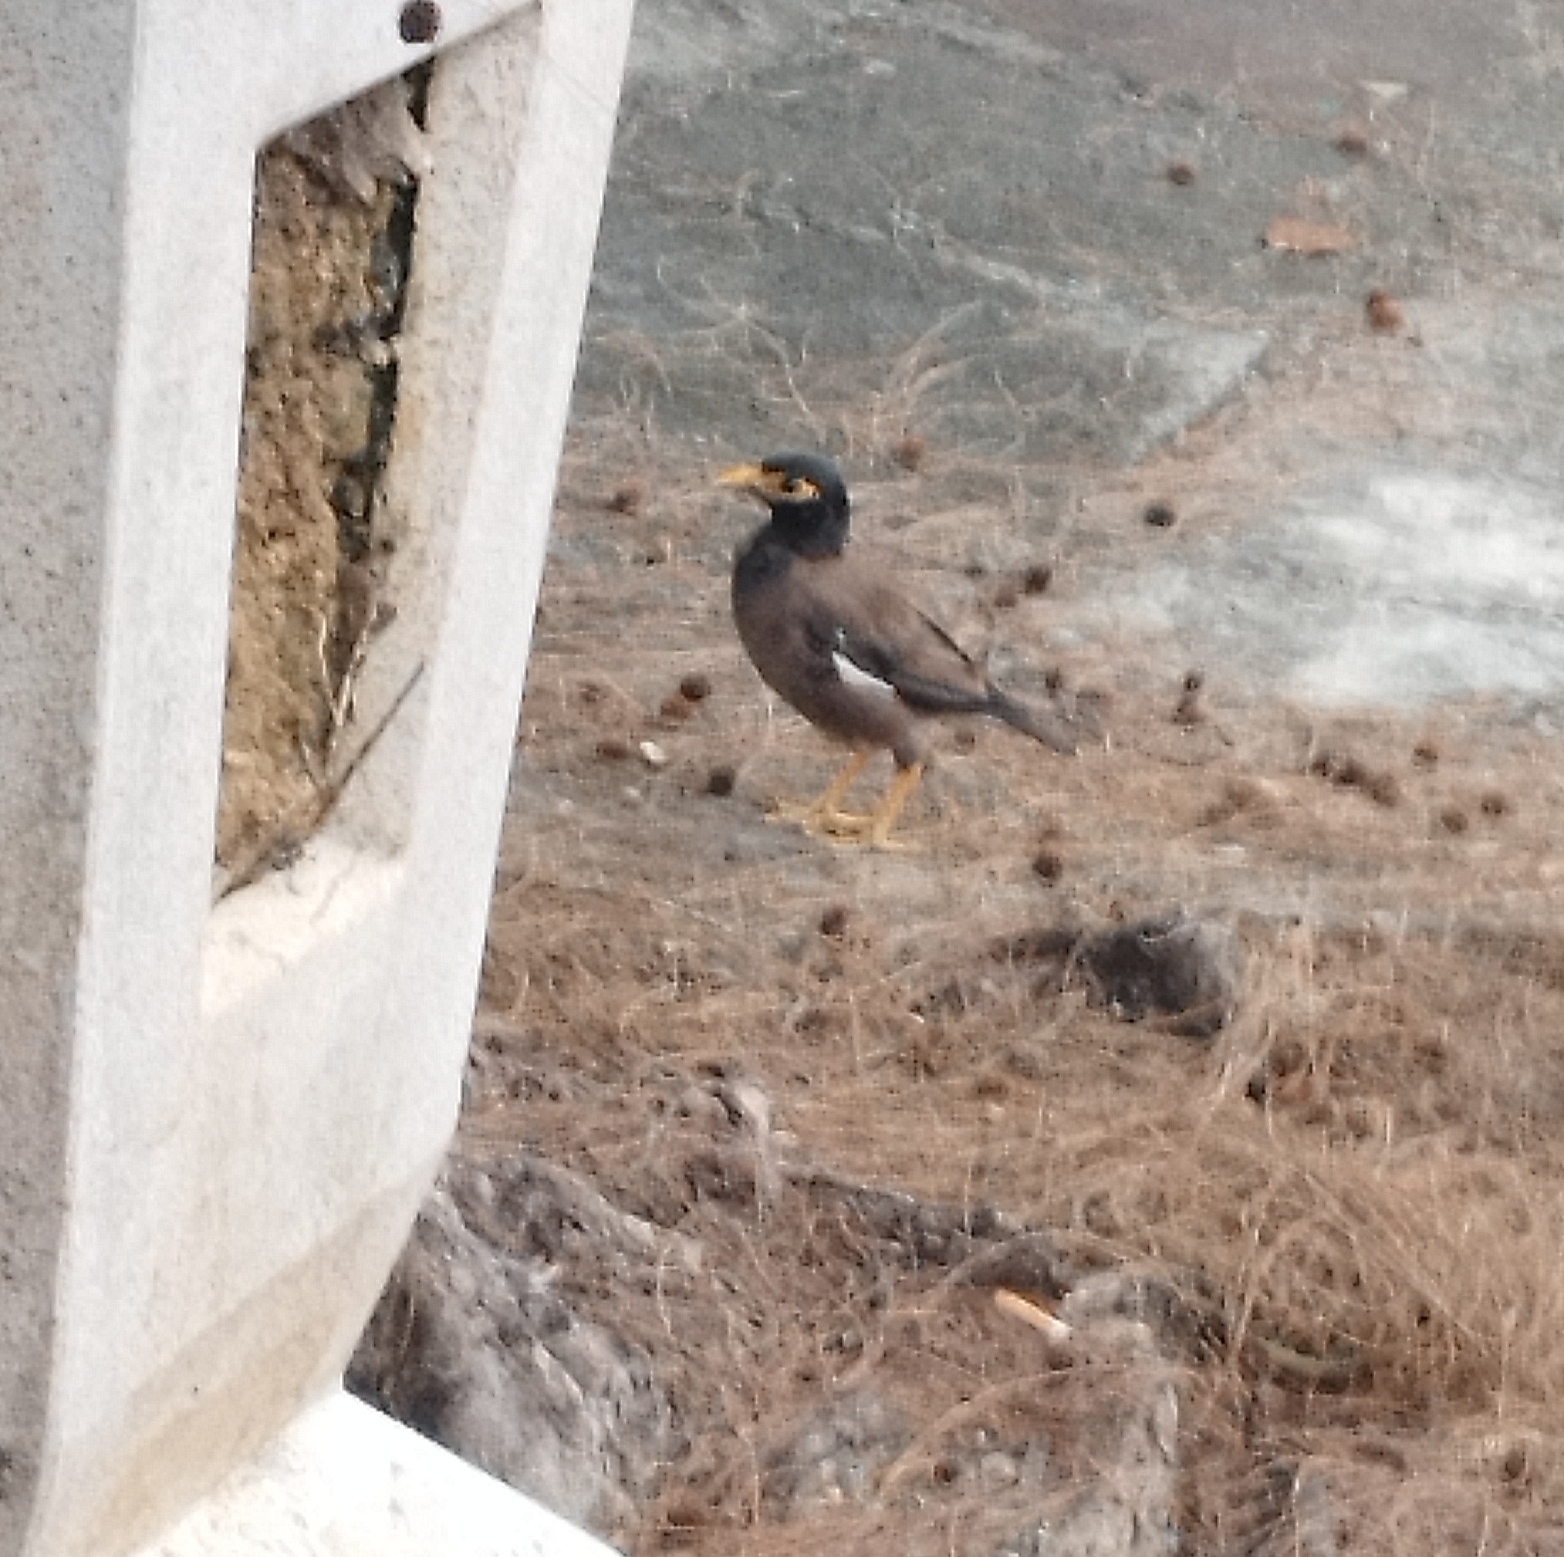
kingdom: Animalia
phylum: Chordata
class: Aves
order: Passeriformes
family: Sturnidae
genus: Acridotheres
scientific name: Acridotheres tristis
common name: Common myna
